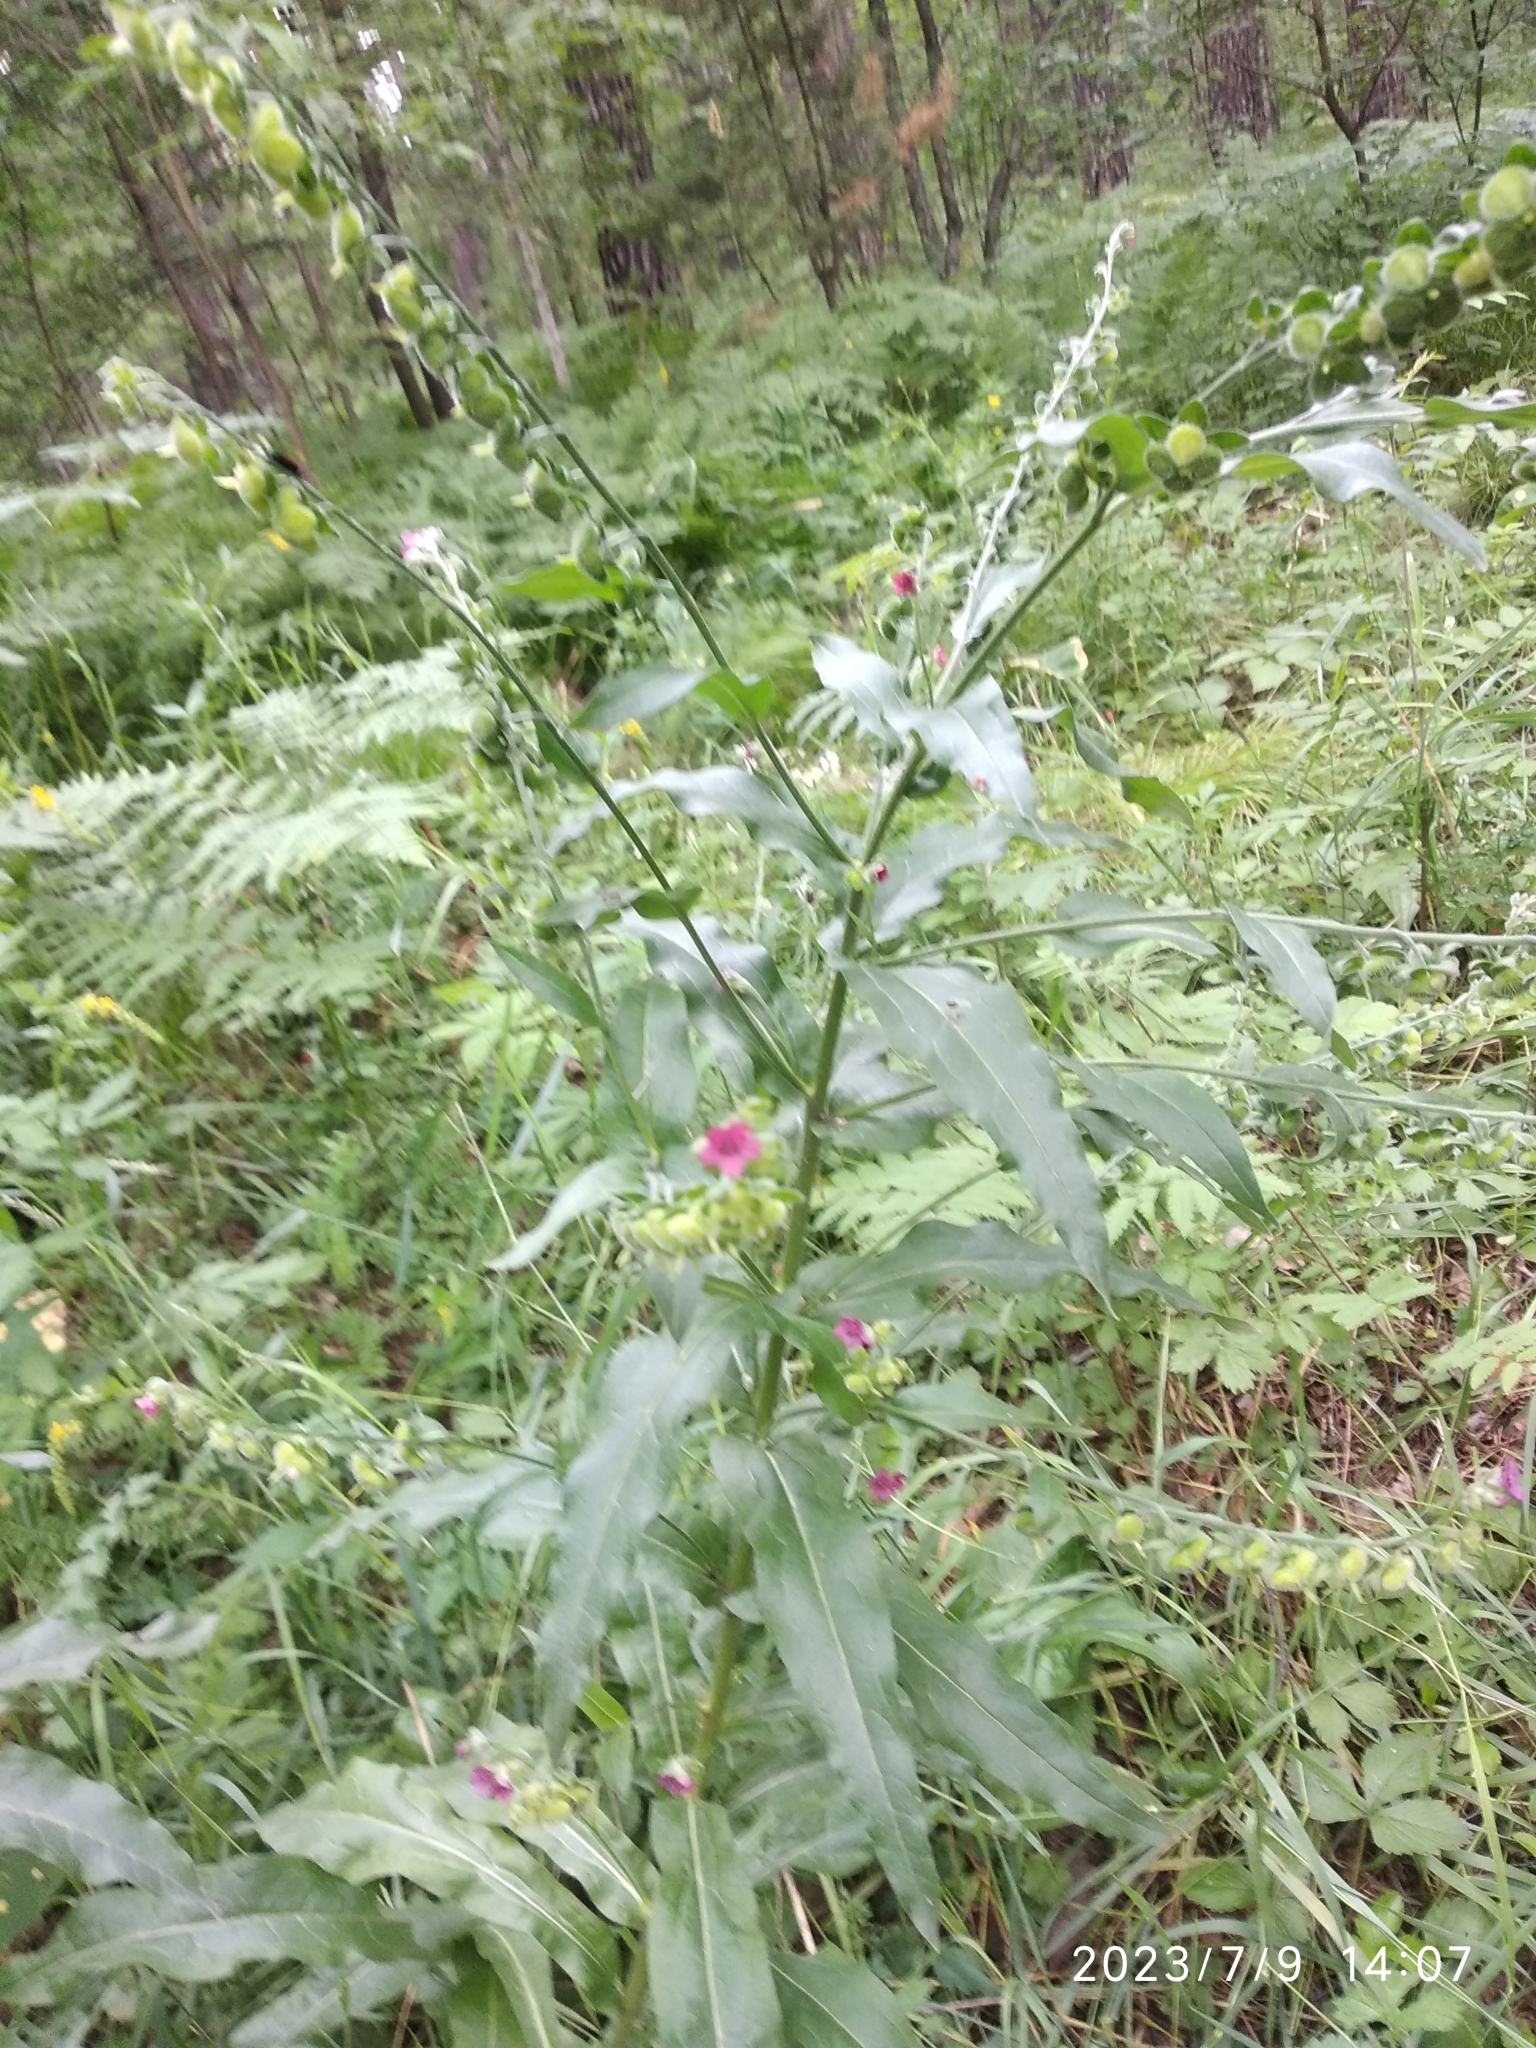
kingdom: Plantae
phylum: Tracheophyta
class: Magnoliopsida
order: Boraginales
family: Boraginaceae
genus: Cynoglossum
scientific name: Cynoglossum officinale
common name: Hound's-tongue
